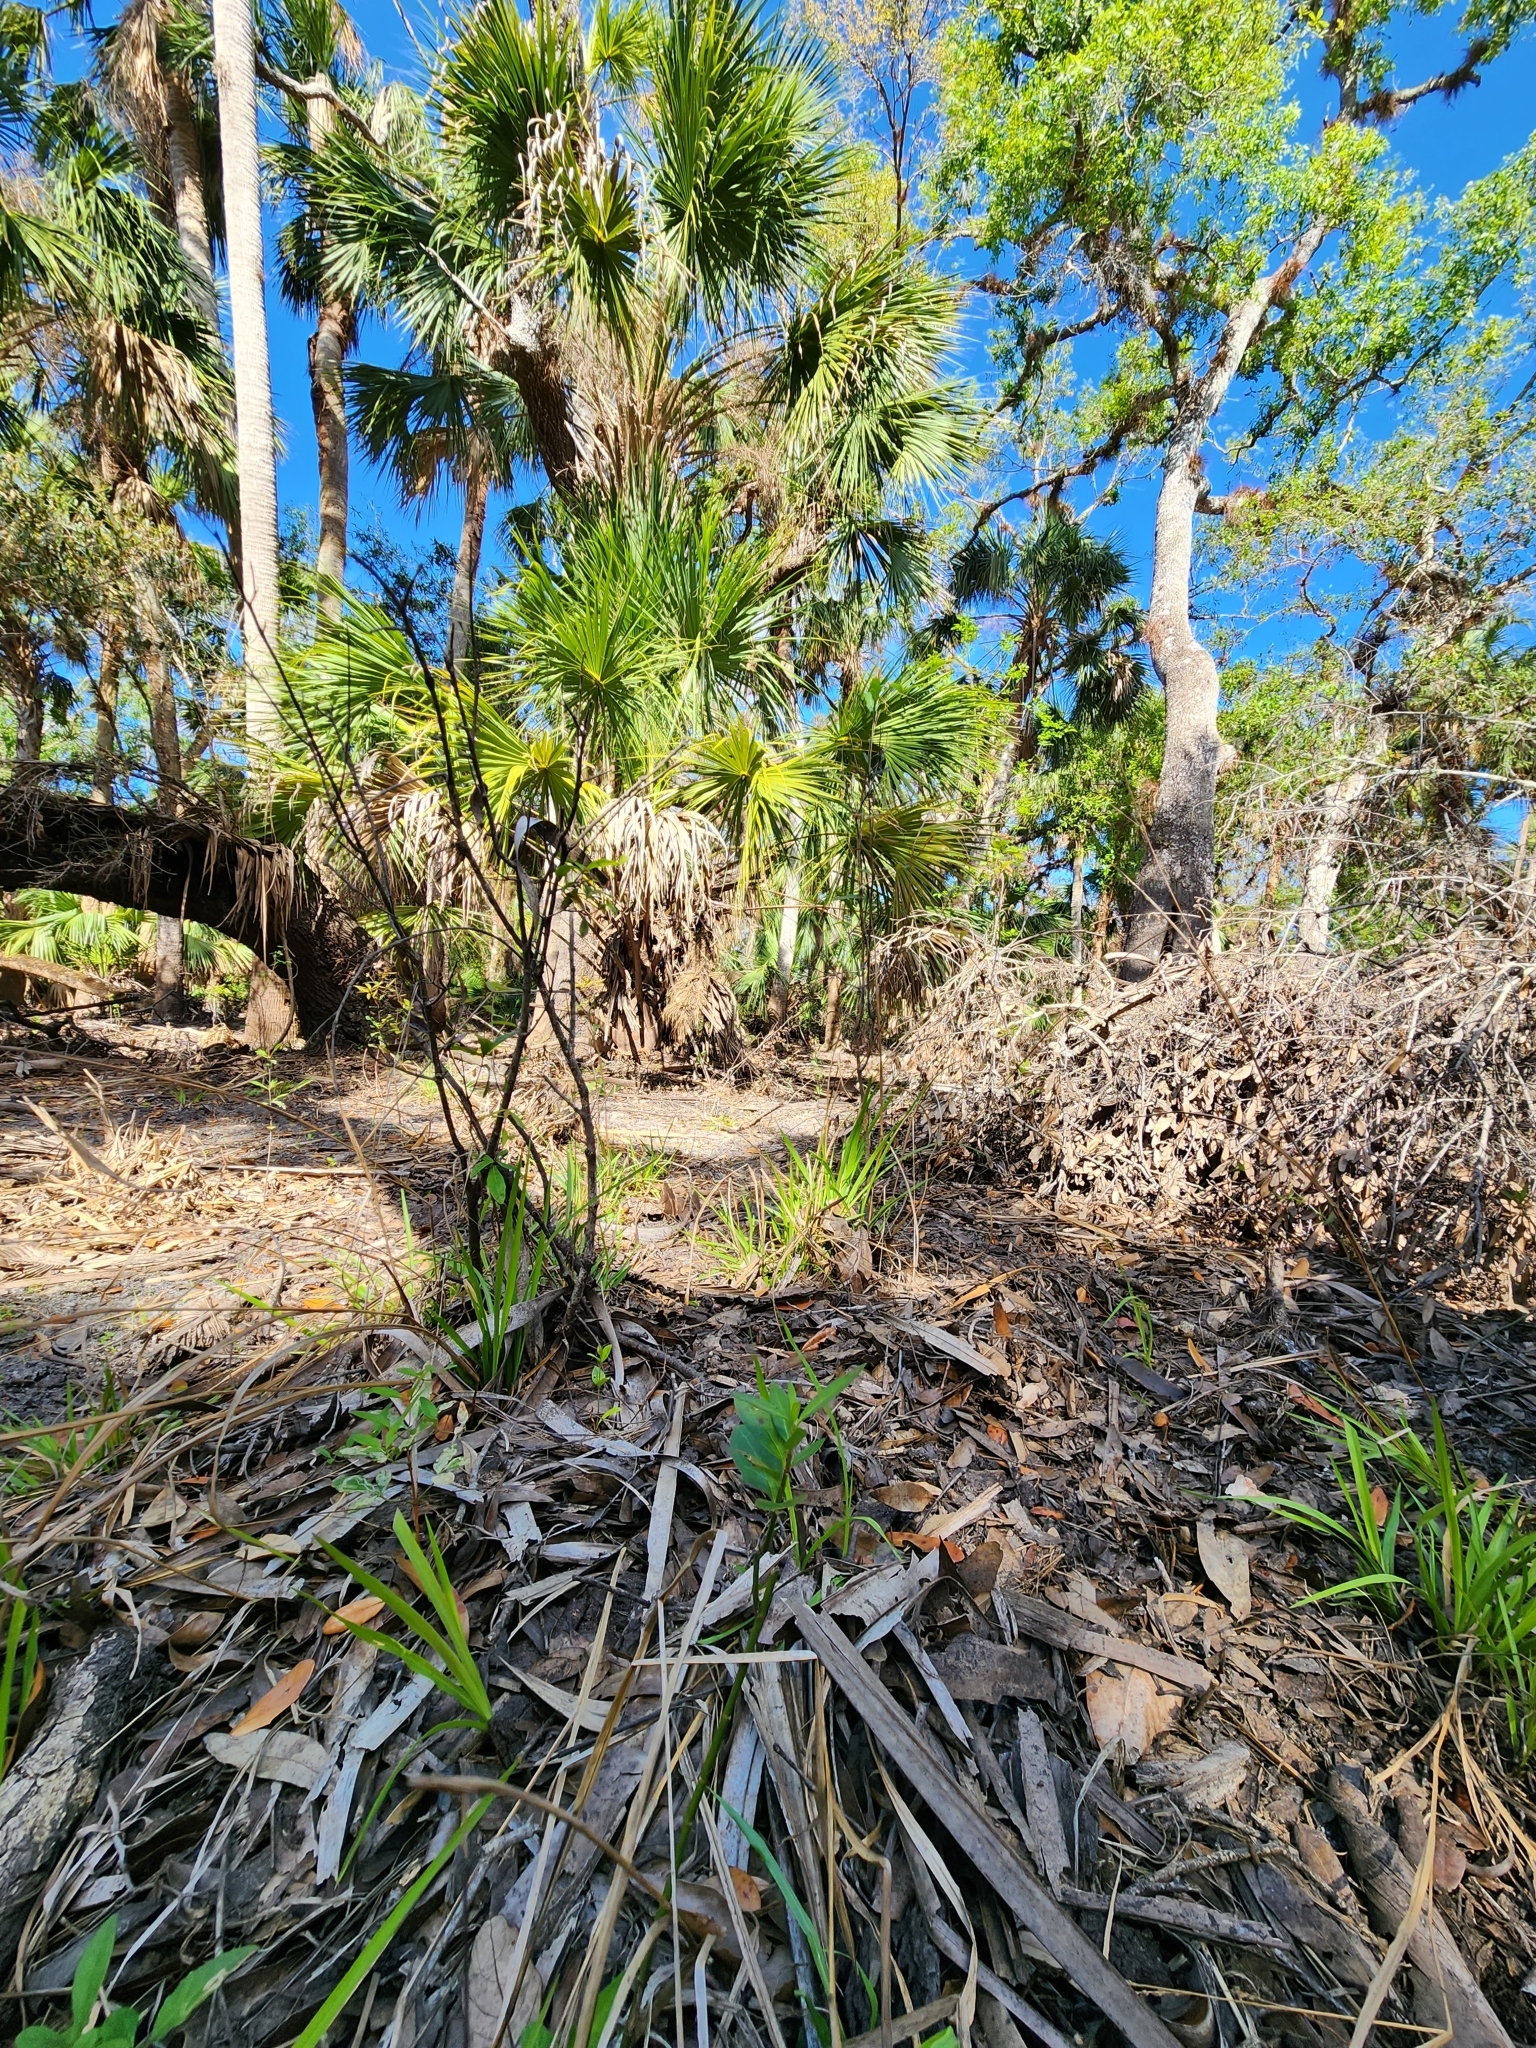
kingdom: Plantae
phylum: Tracheophyta
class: Magnoliopsida
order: Gentianales
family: Apocynaceae
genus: Asclepias
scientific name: Asclepias perennis
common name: Smooth-seed milkweed
